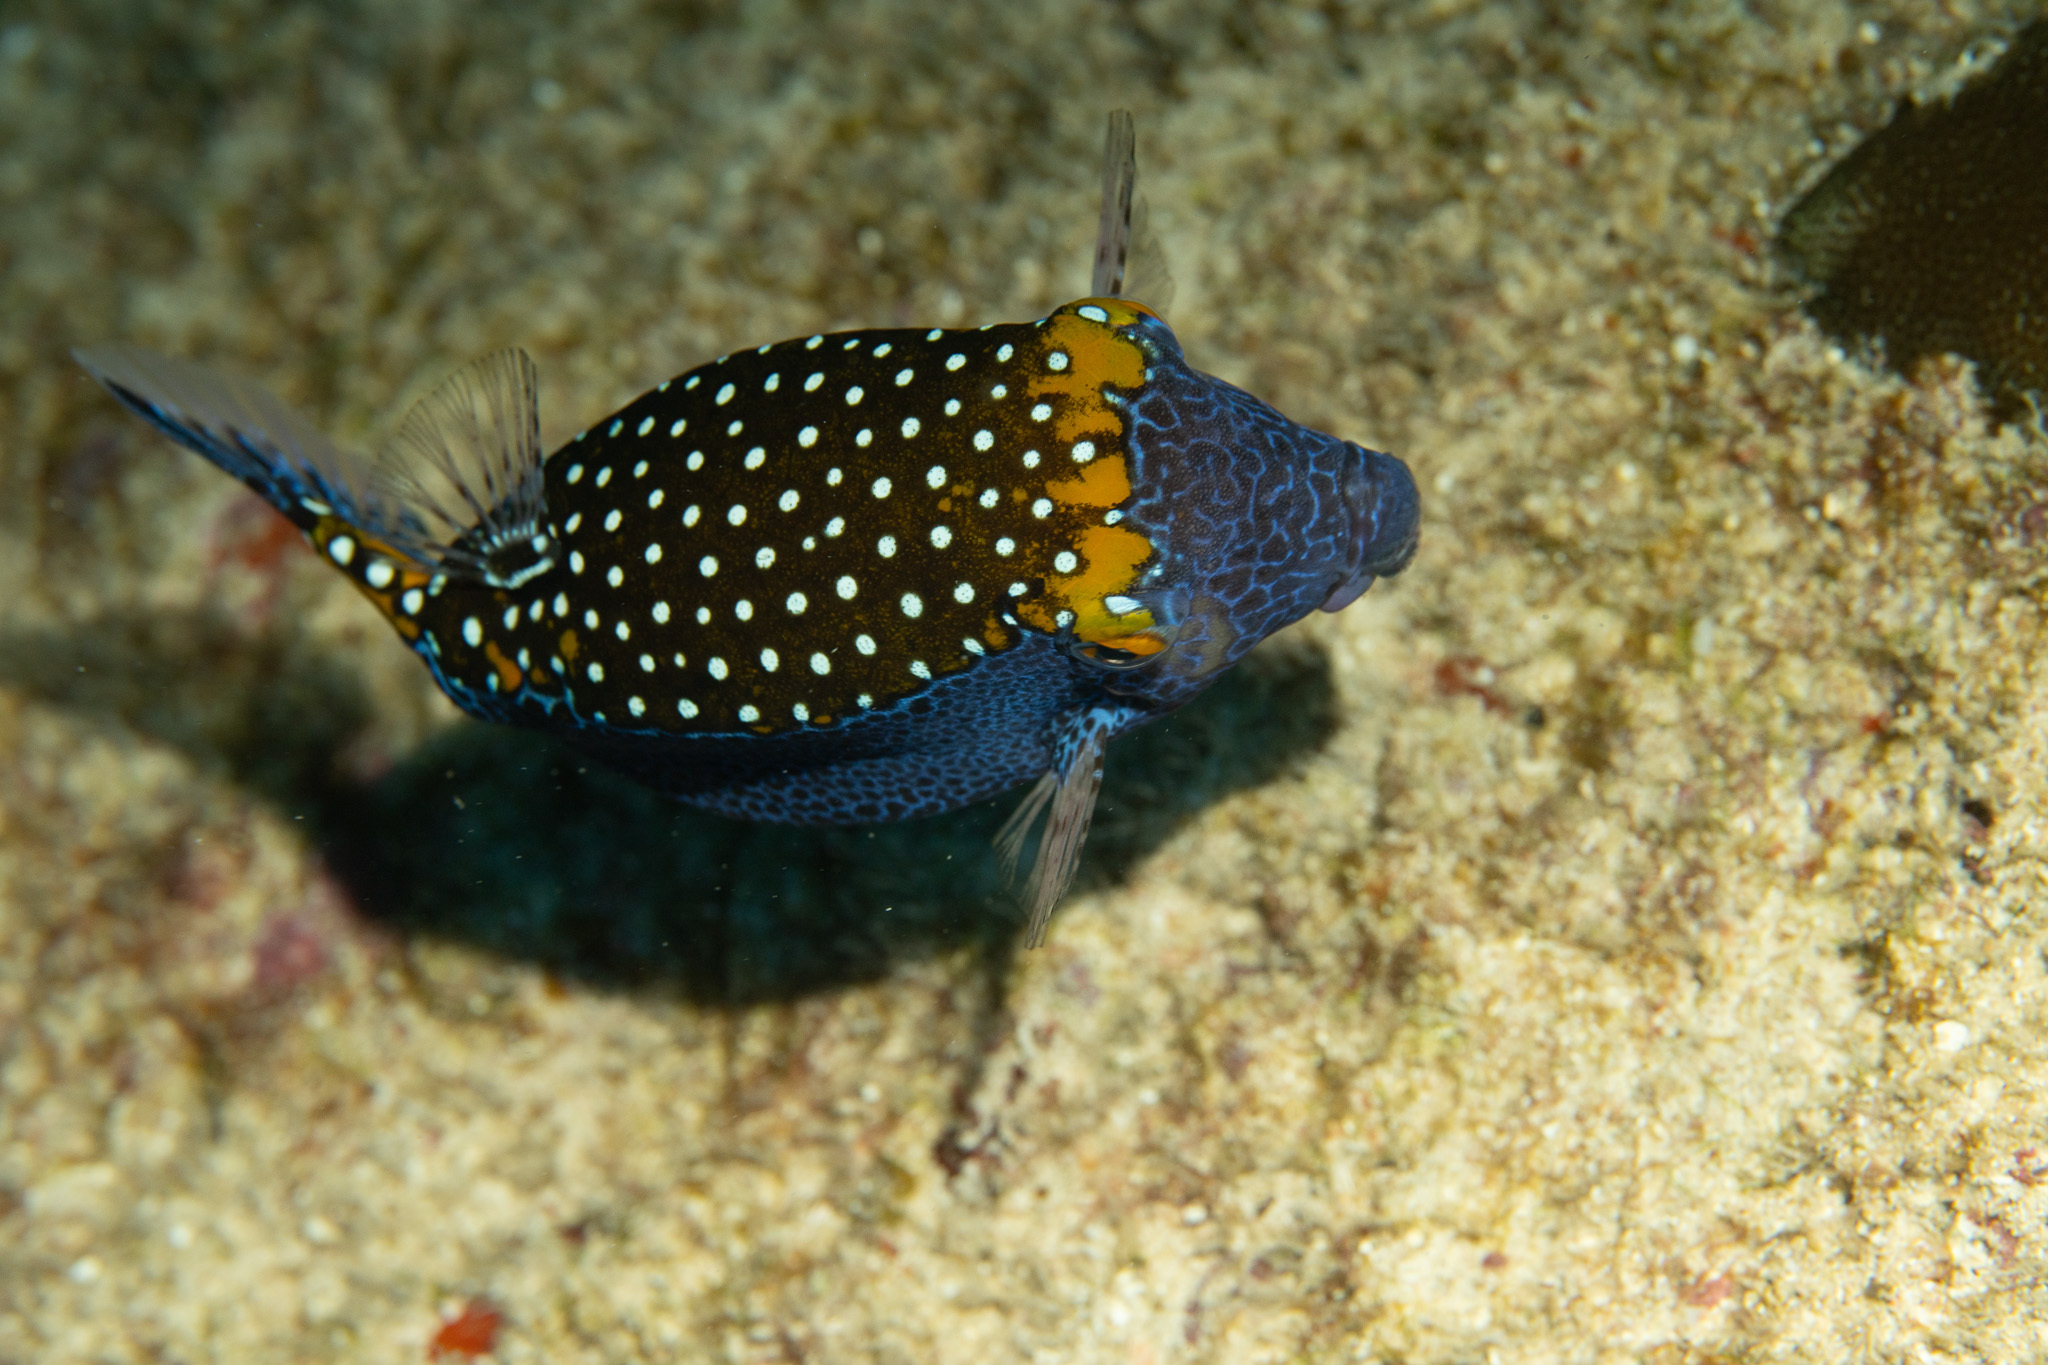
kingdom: Animalia
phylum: Chordata
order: Tetraodontiformes
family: Ostraciidae
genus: Ostracion
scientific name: Ostracion meleagris
